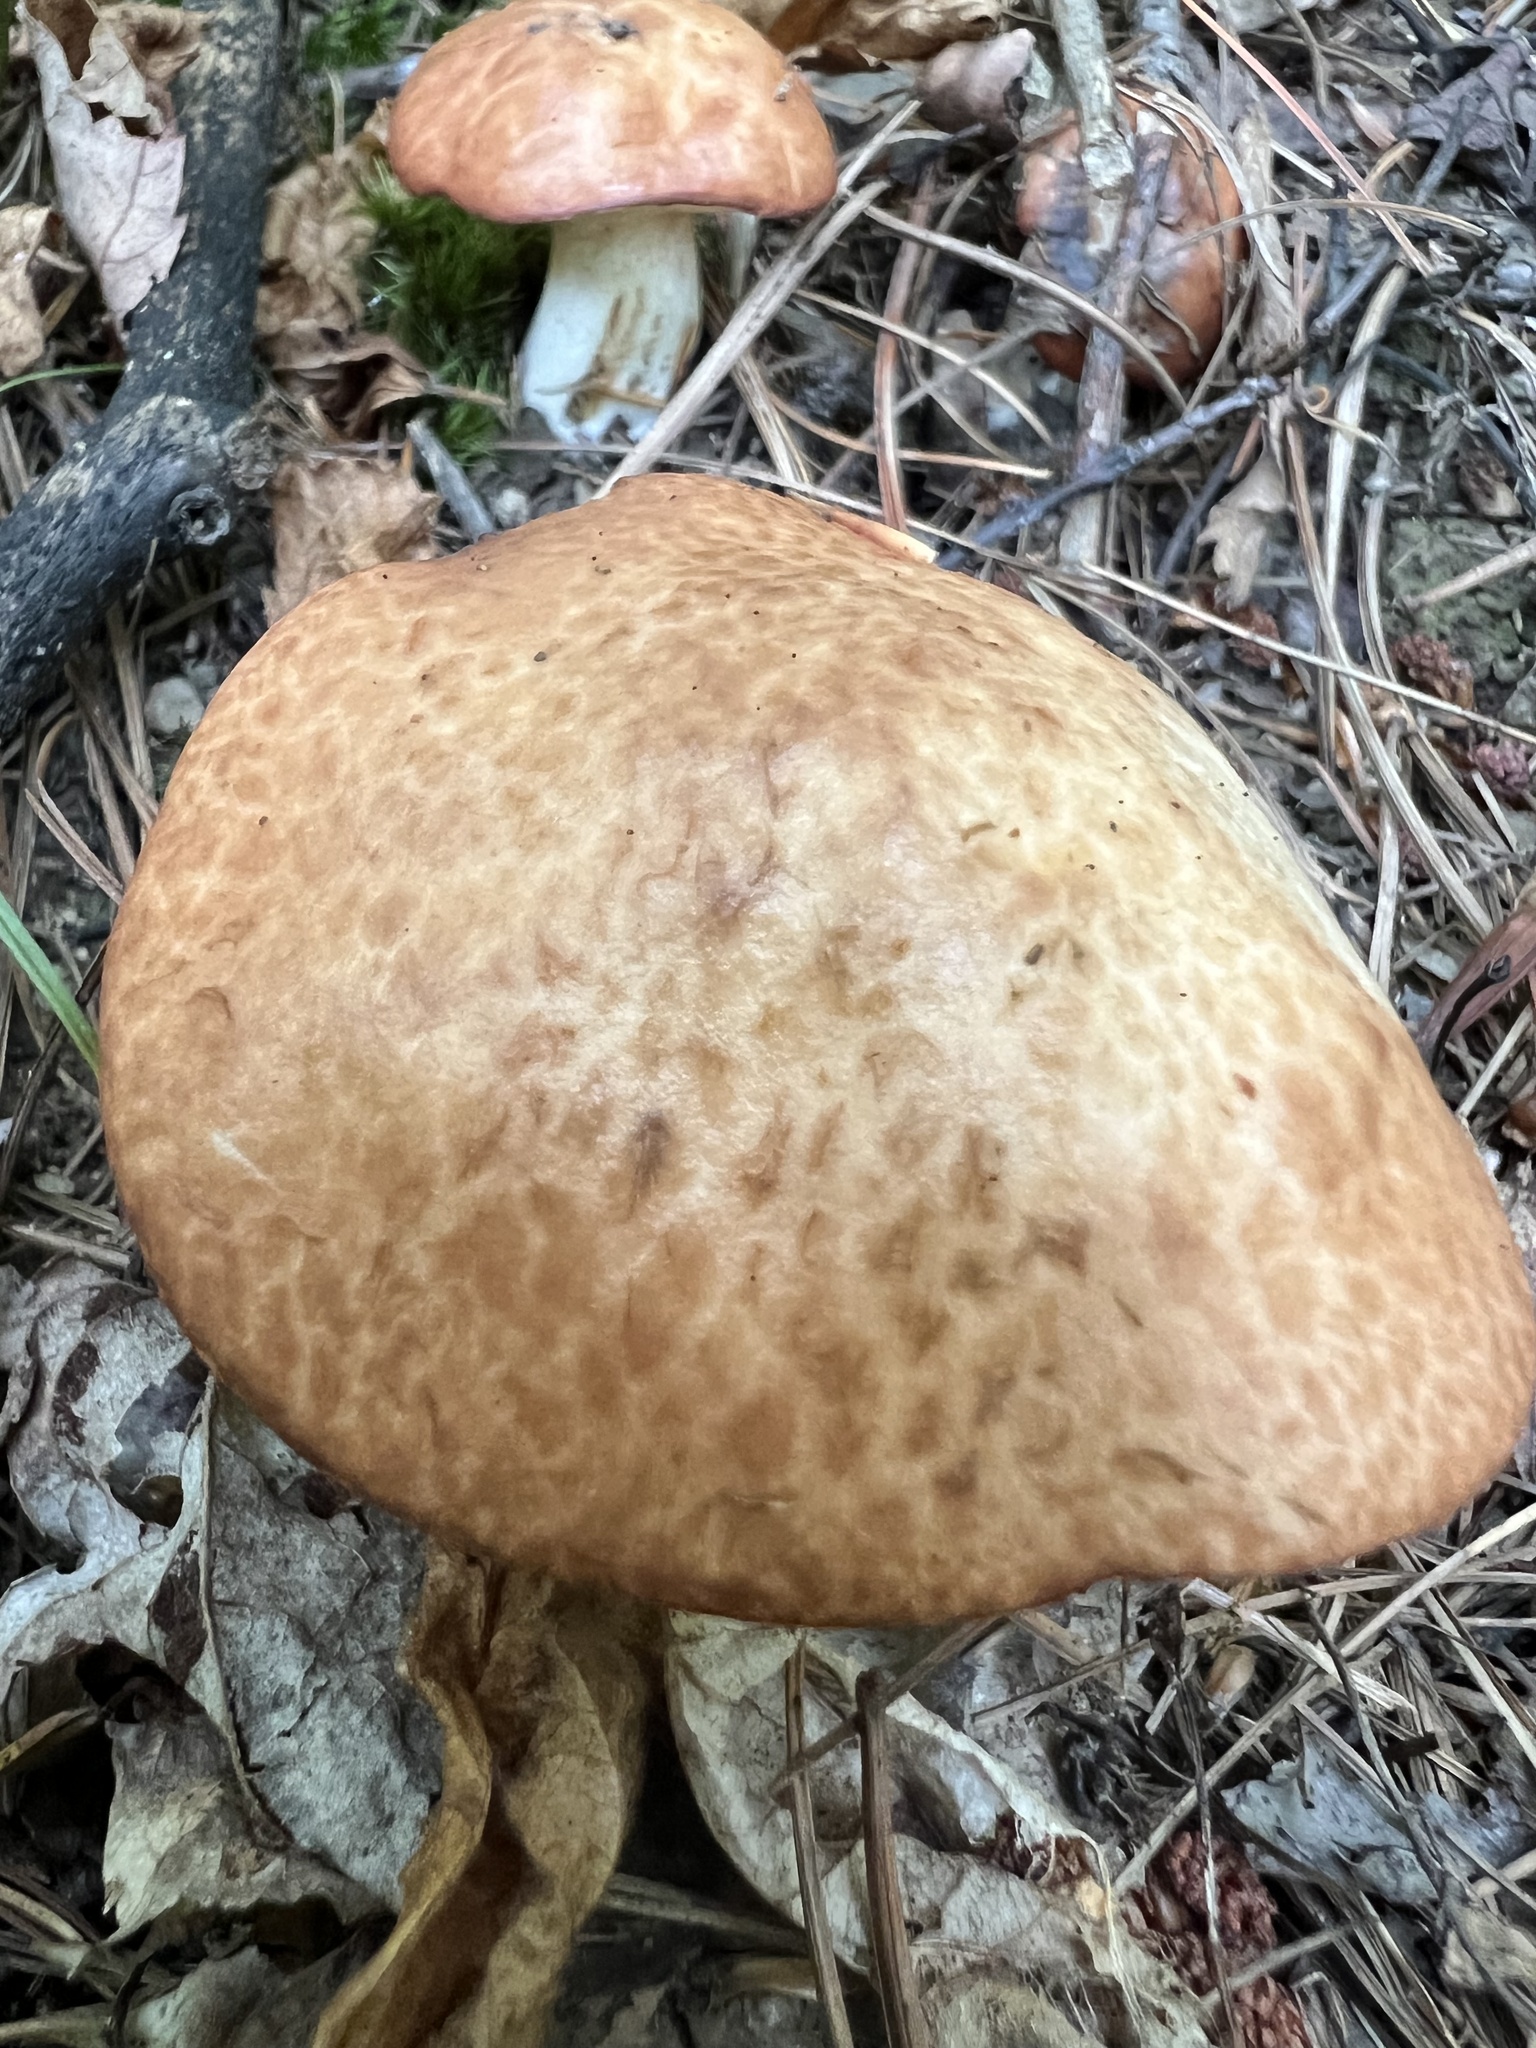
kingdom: Fungi
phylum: Basidiomycota
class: Agaricomycetes
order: Boletales
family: Suillaceae
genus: Fuscoboletinus
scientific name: Fuscoboletinus weaverae
